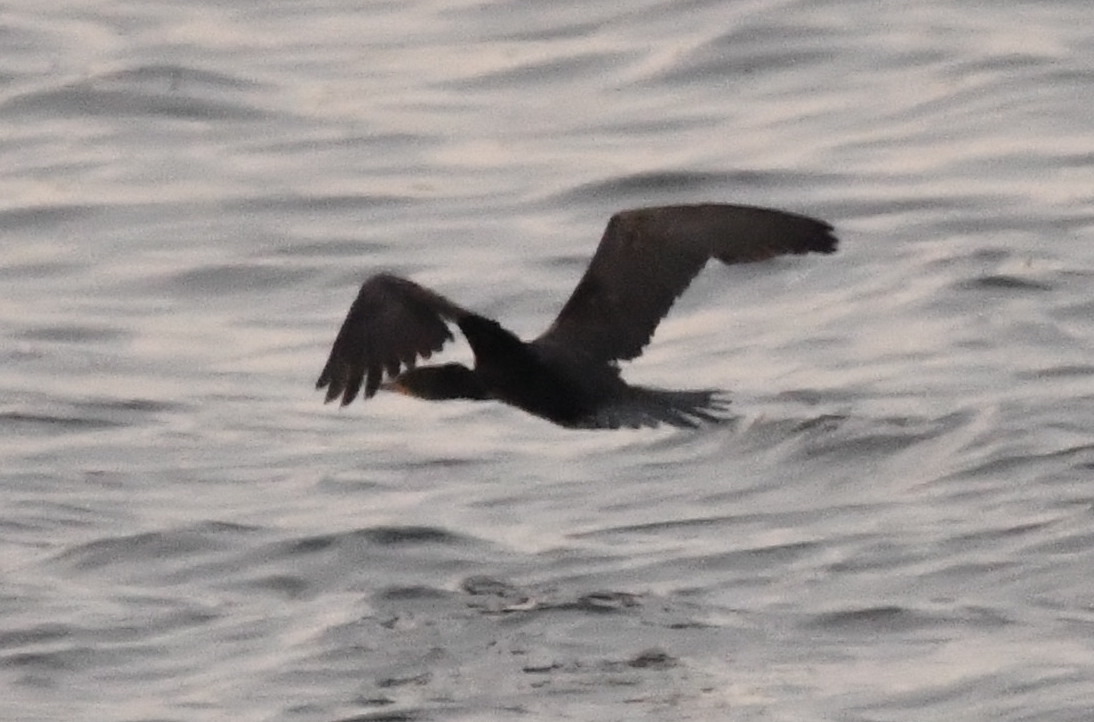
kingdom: Animalia
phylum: Chordata
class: Aves
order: Suliformes
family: Phalacrocoracidae
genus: Phalacrocorax
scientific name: Phalacrocorax carbo
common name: Great cormorant
